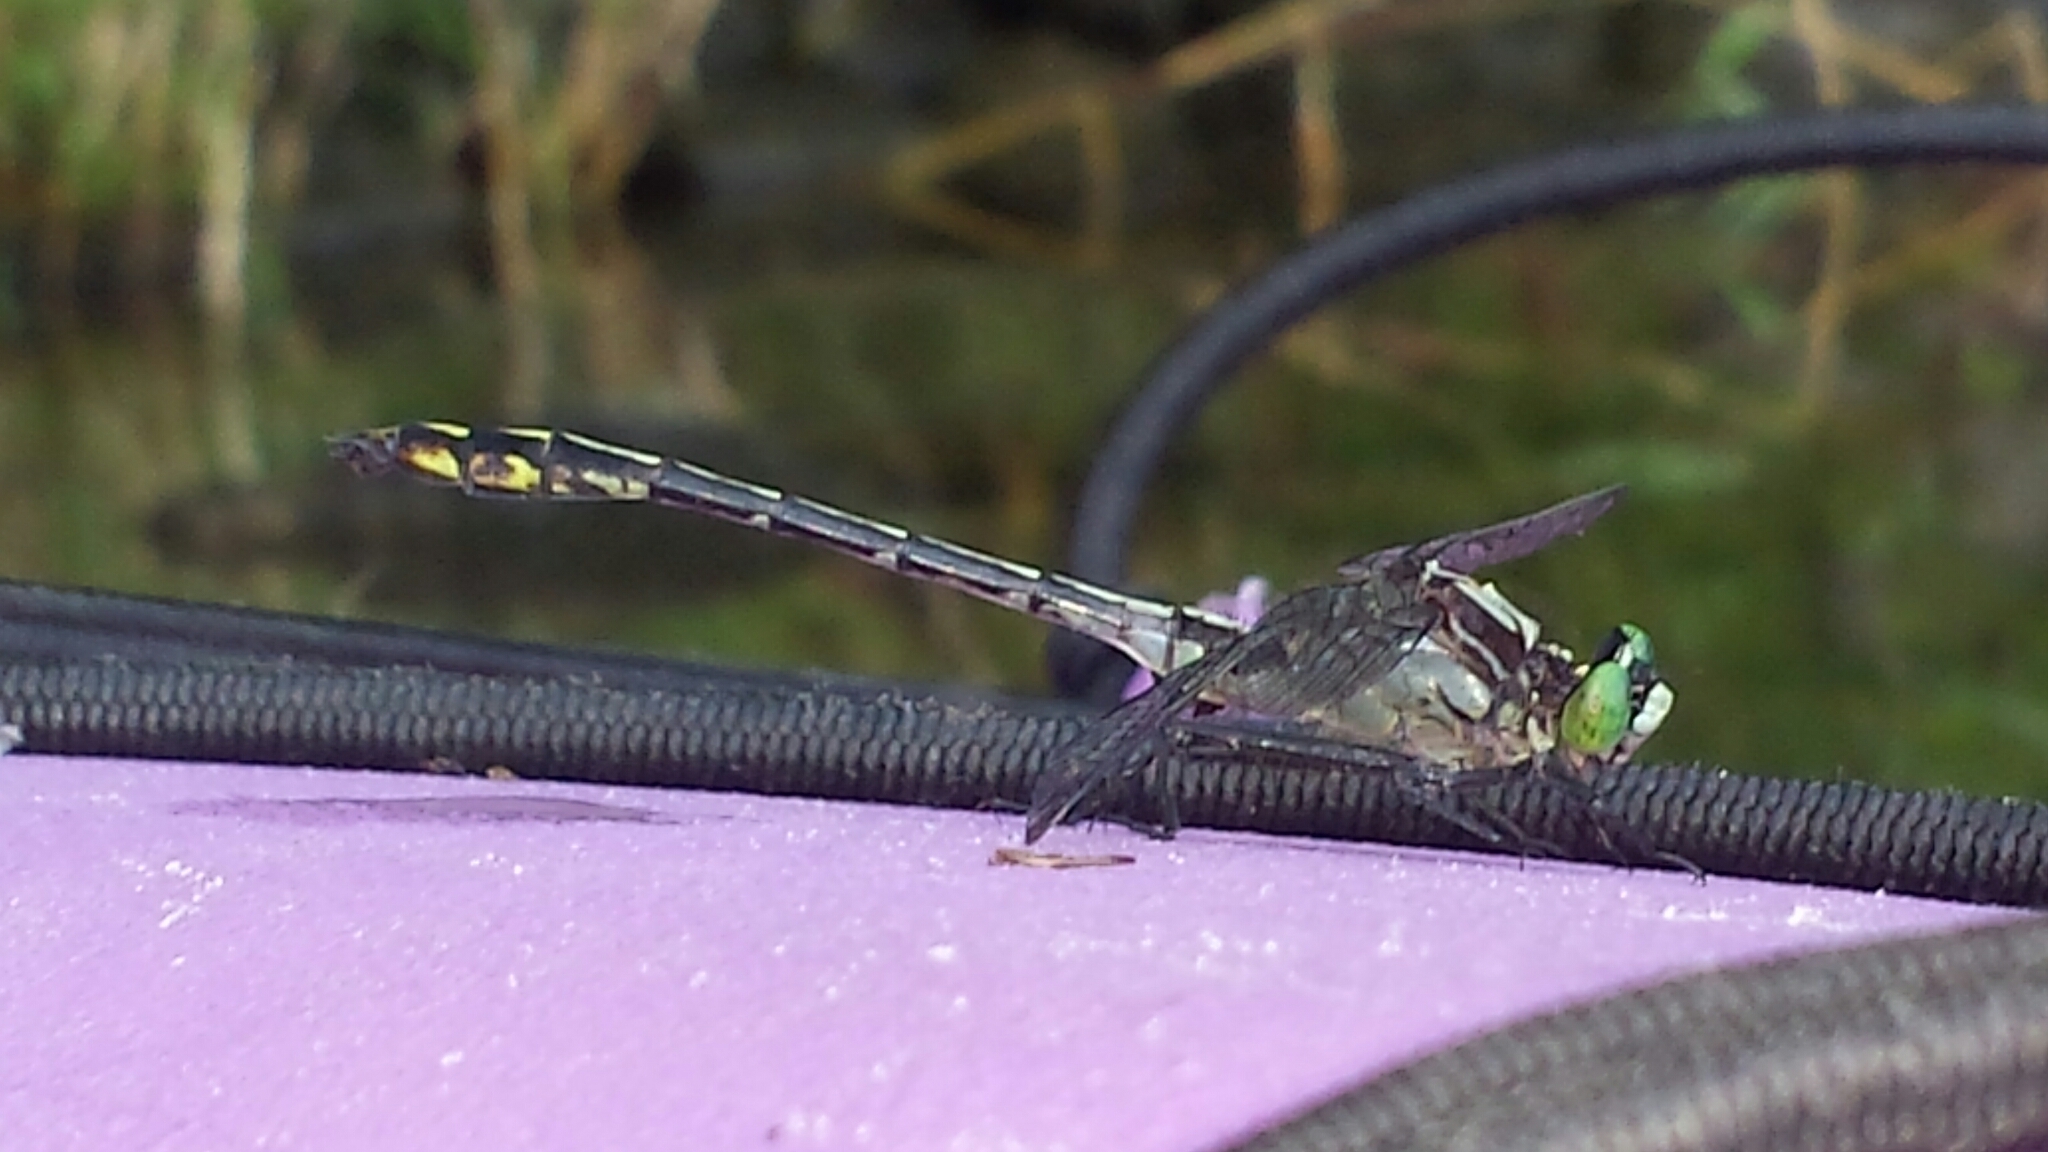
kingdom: Animalia
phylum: Arthropoda
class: Insecta
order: Odonata
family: Gomphidae
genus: Dromogomphus
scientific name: Dromogomphus spinosus
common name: Black-shouldered spinyleg
